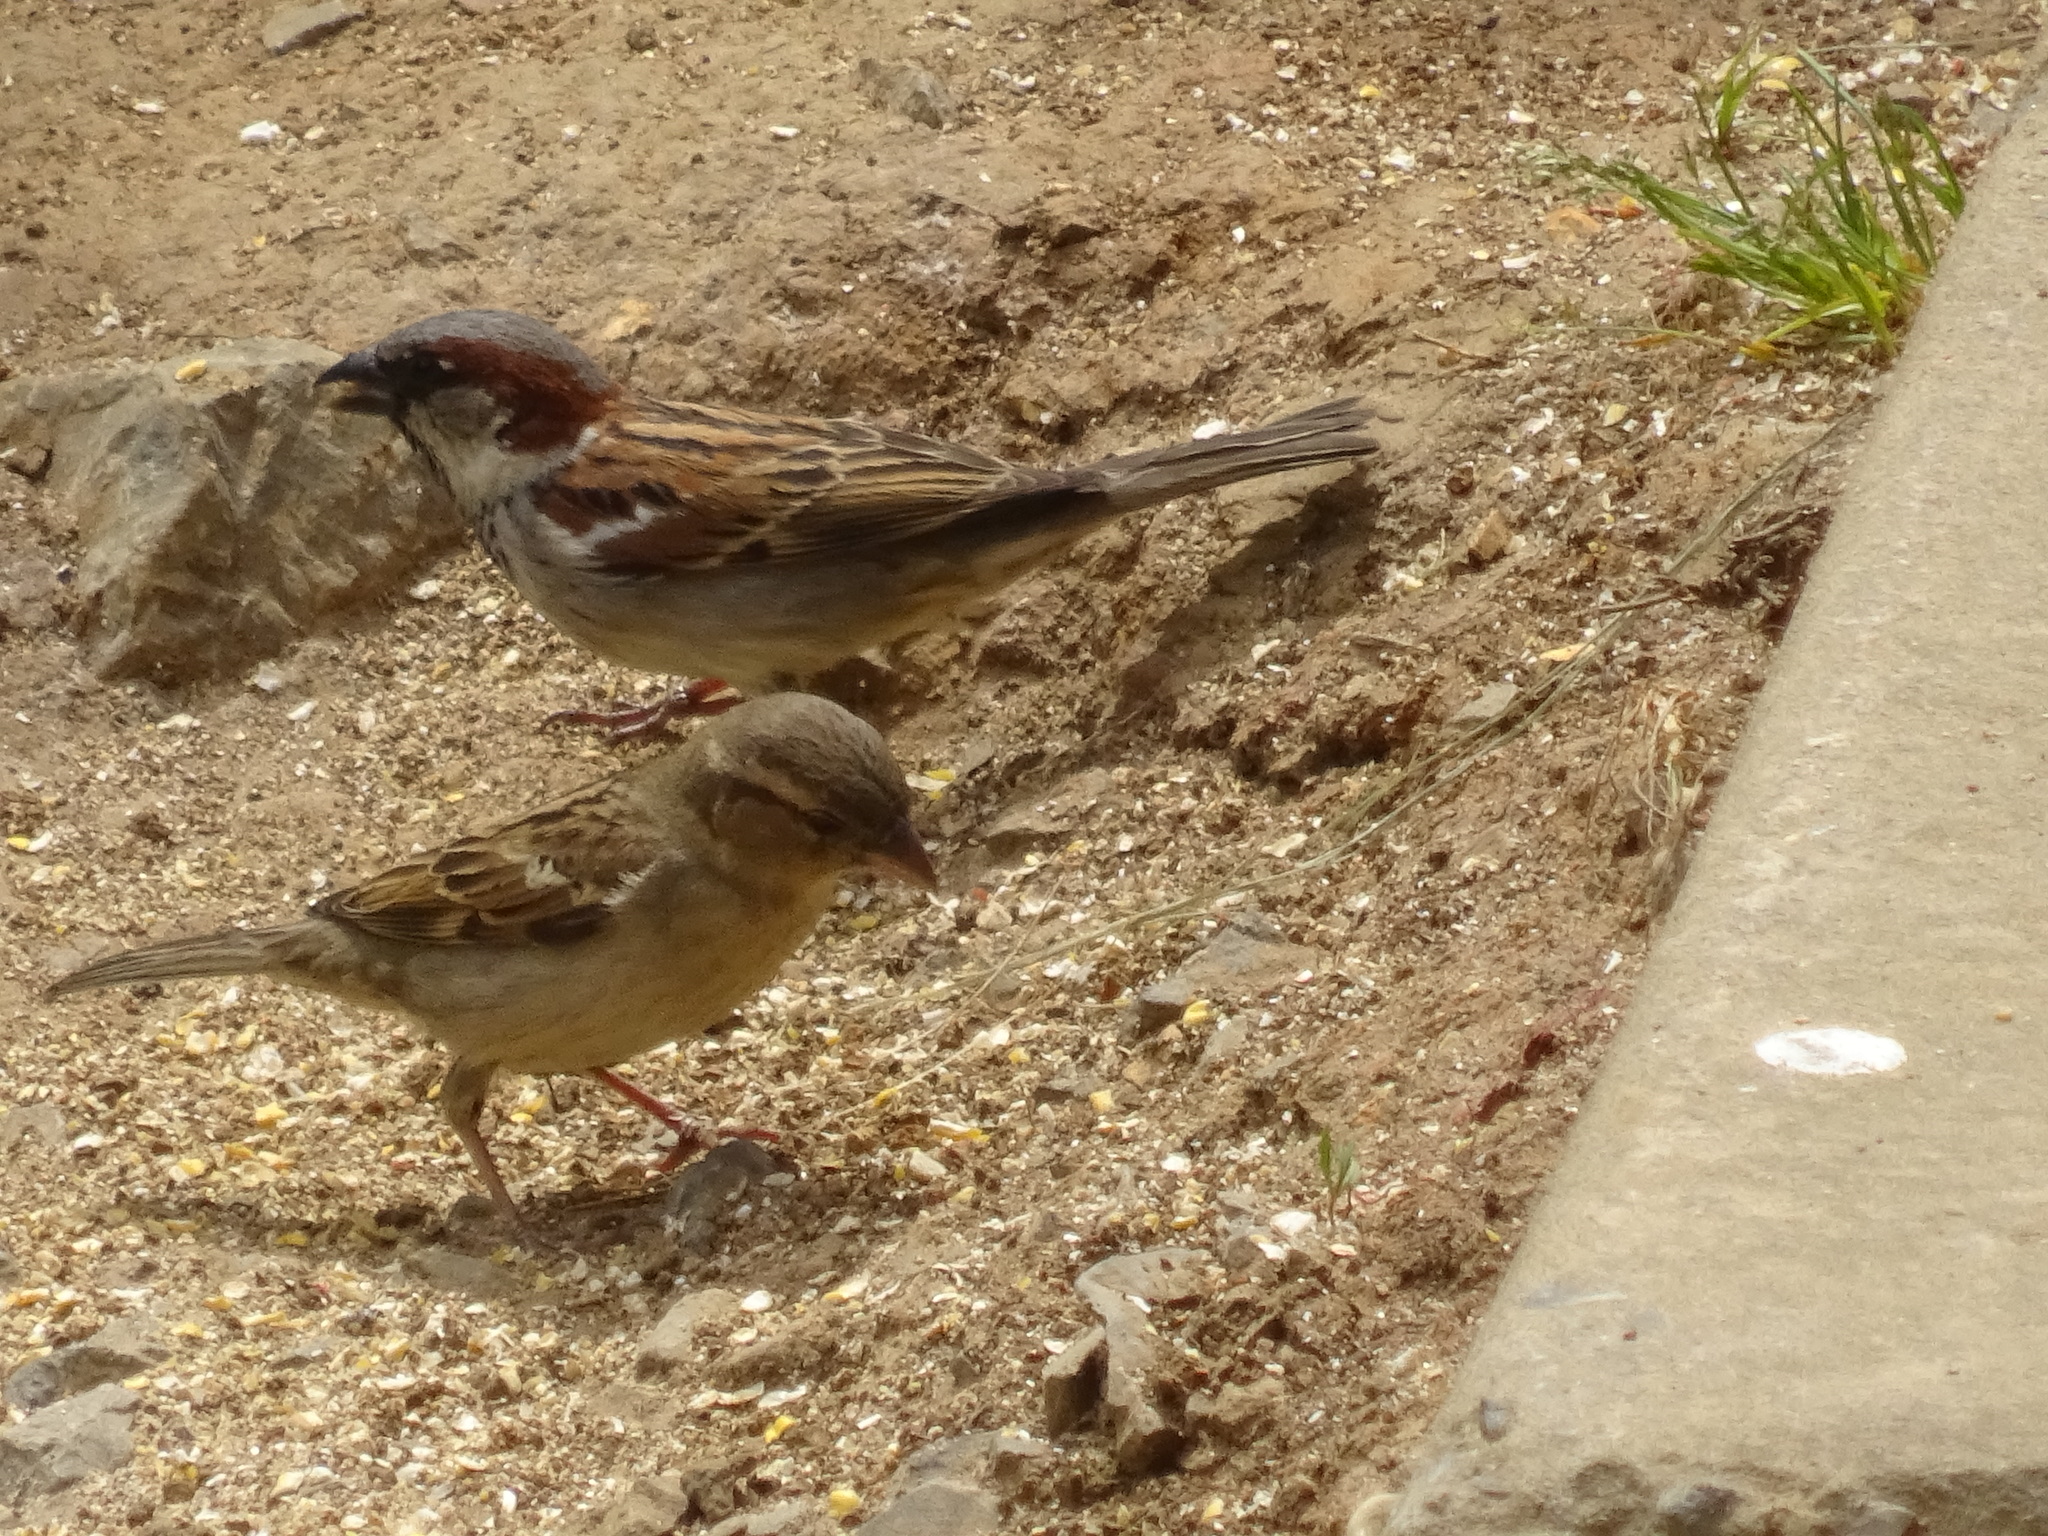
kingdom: Animalia
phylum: Chordata
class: Aves
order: Passeriformes
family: Passeridae
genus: Passer
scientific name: Passer domesticus
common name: House sparrow
